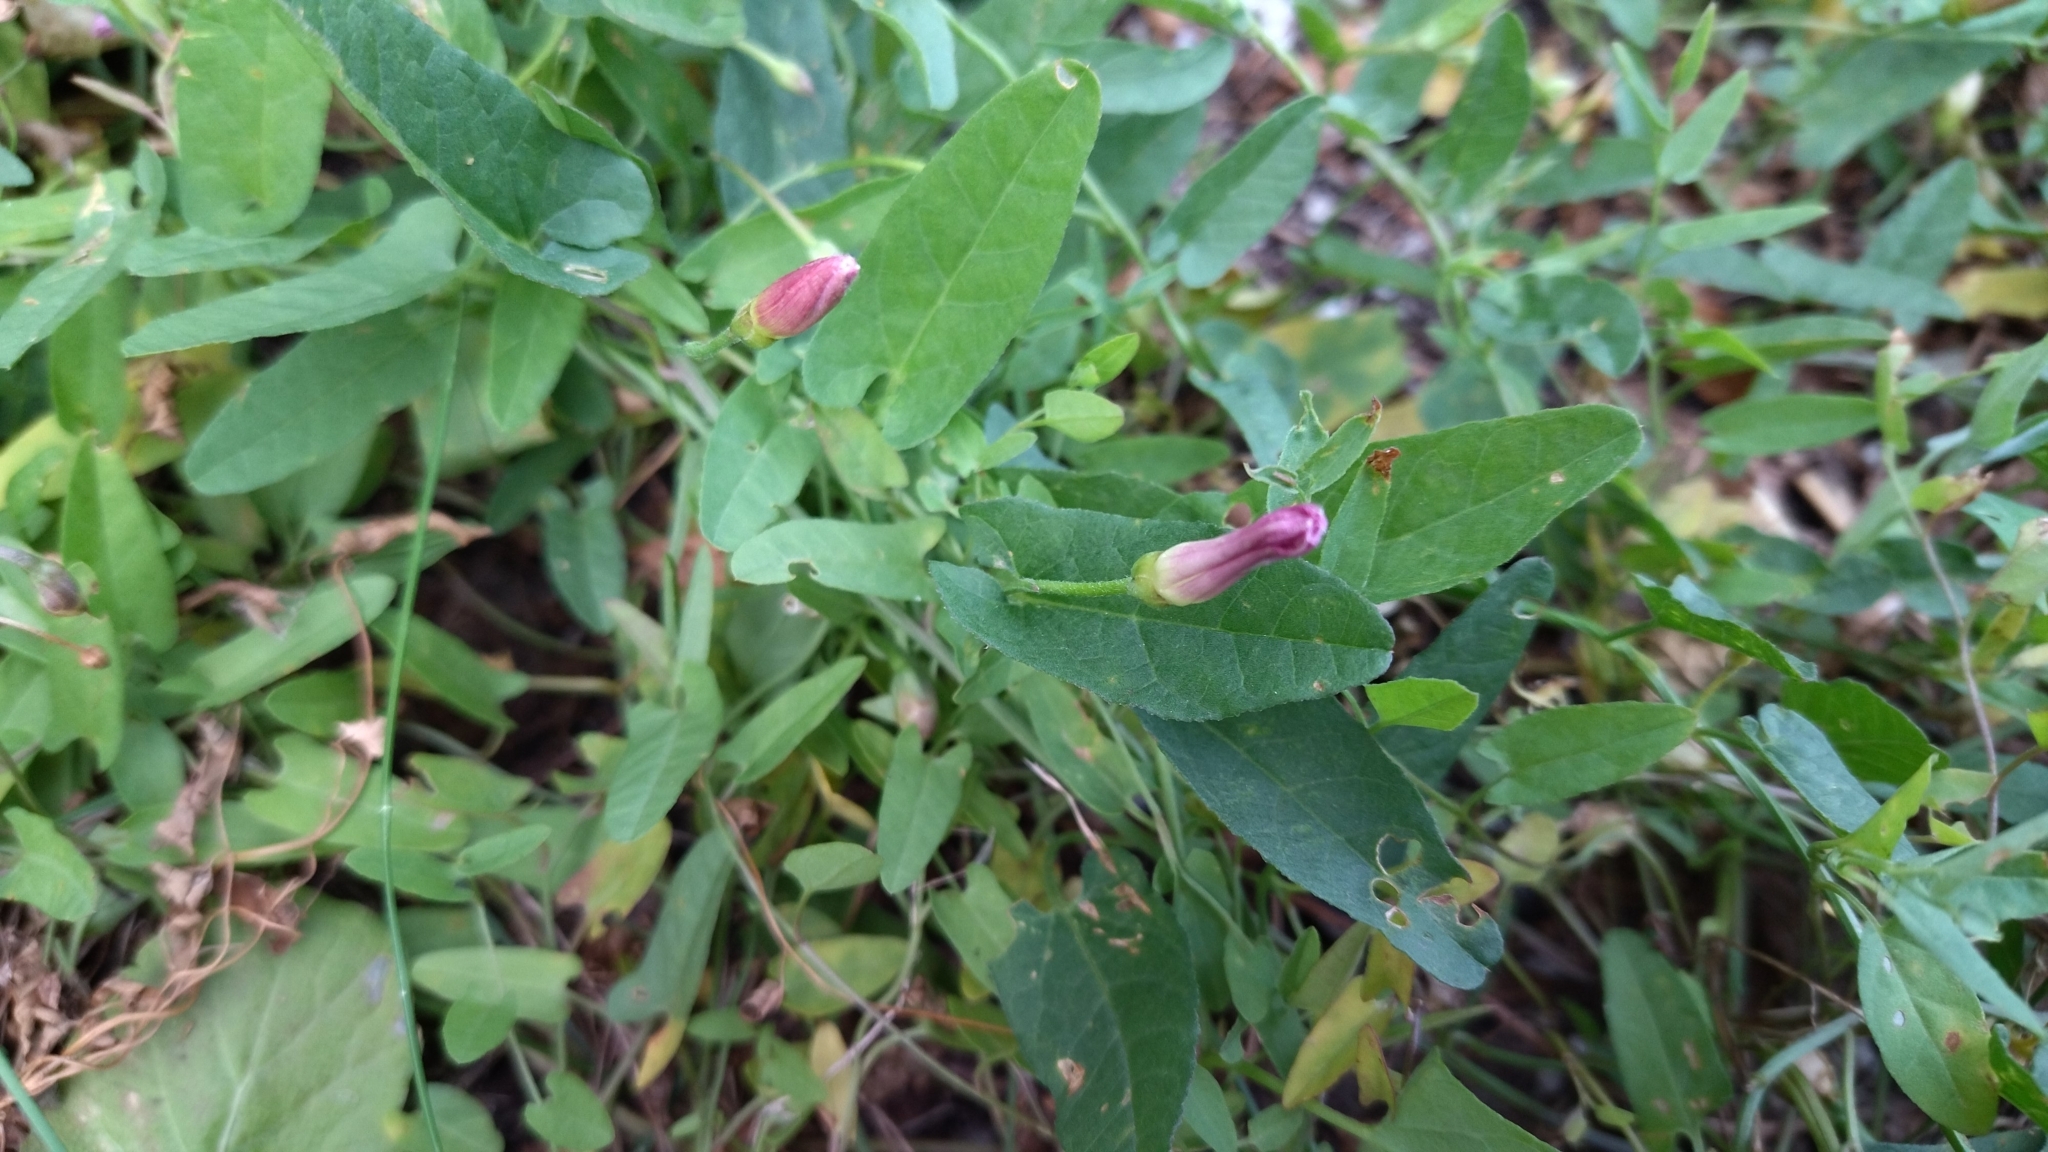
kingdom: Plantae
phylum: Tracheophyta
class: Magnoliopsida
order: Solanales
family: Convolvulaceae
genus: Convolvulus
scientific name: Convolvulus arvensis
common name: Field bindweed
